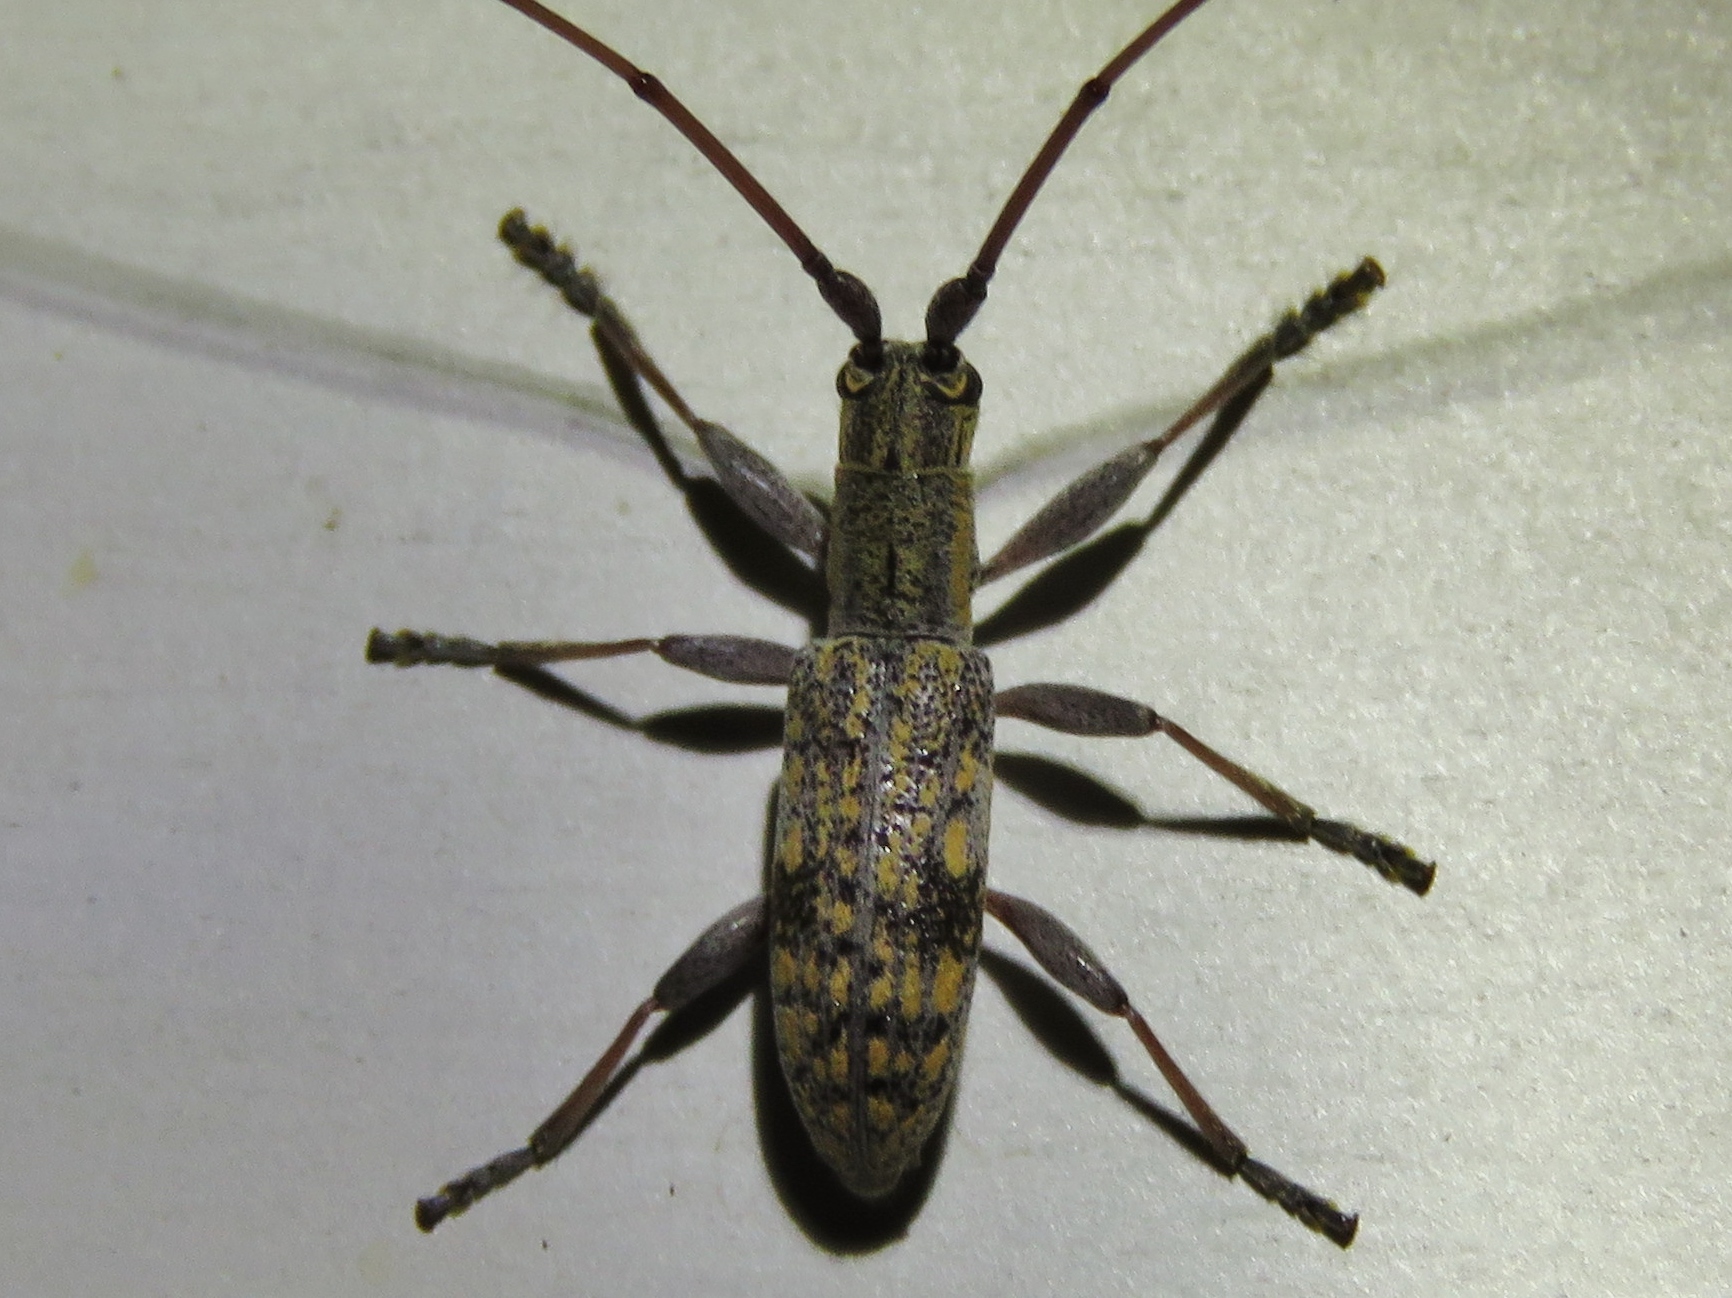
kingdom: Animalia
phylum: Arthropoda
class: Insecta
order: Coleoptera
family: Cerambycidae
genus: Dorcaschema
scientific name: Dorcaschema alternatum
